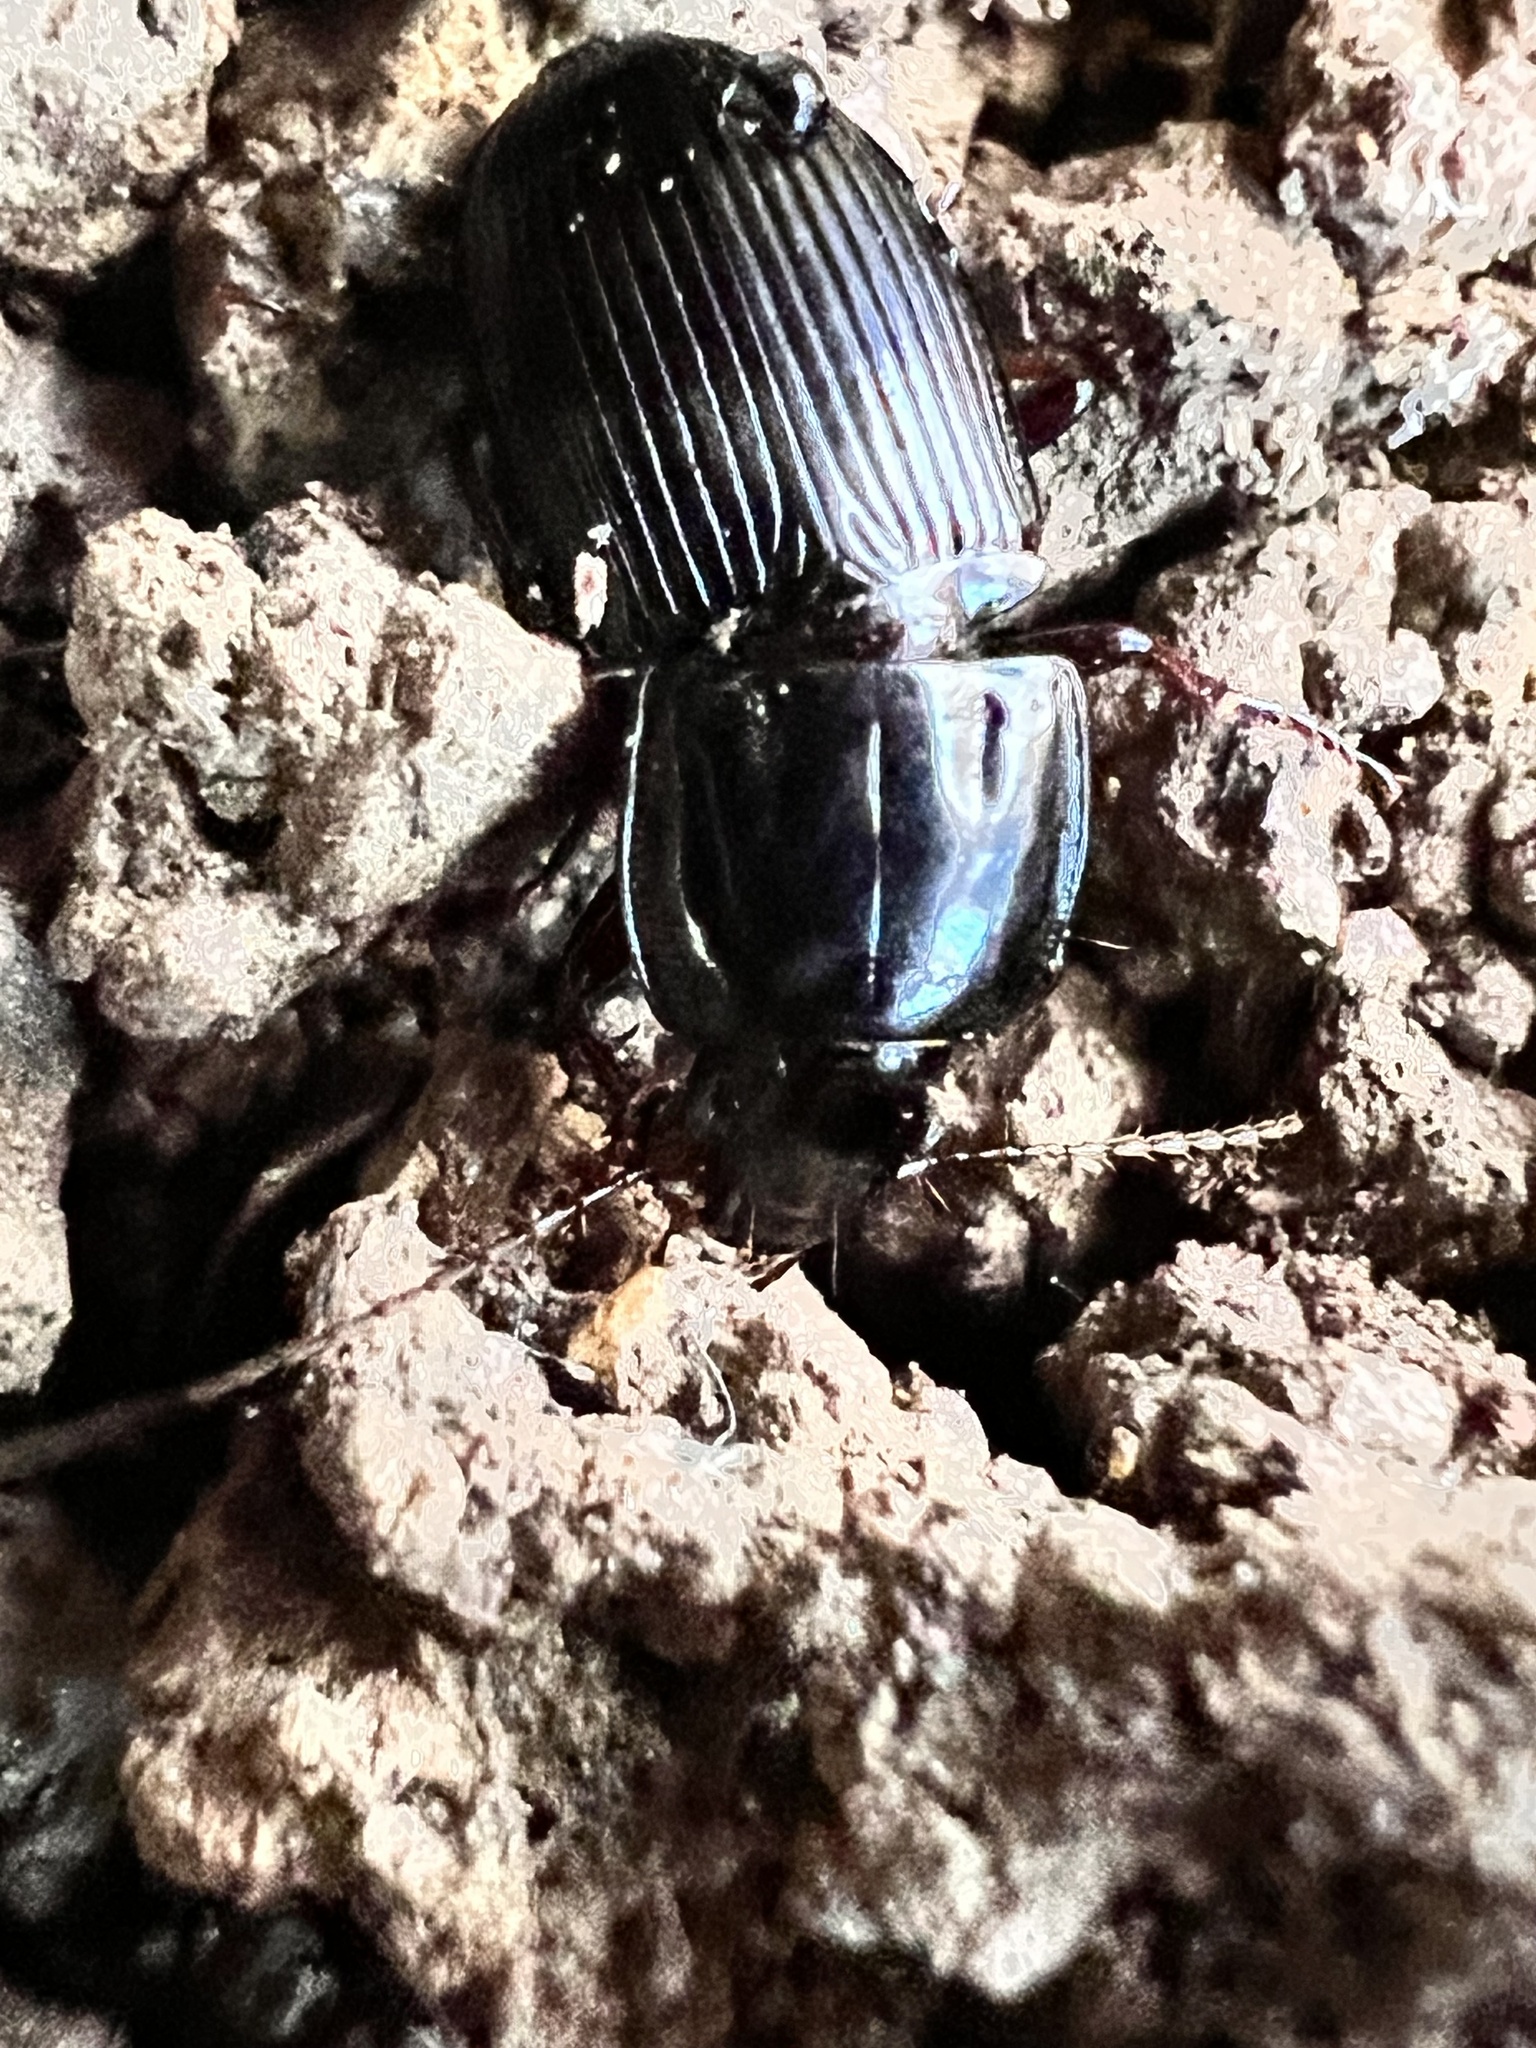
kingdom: Animalia
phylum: Arthropoda
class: Insecta
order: Coleoptera
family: Carabidae
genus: Abacidus
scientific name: Abacidus permundus
